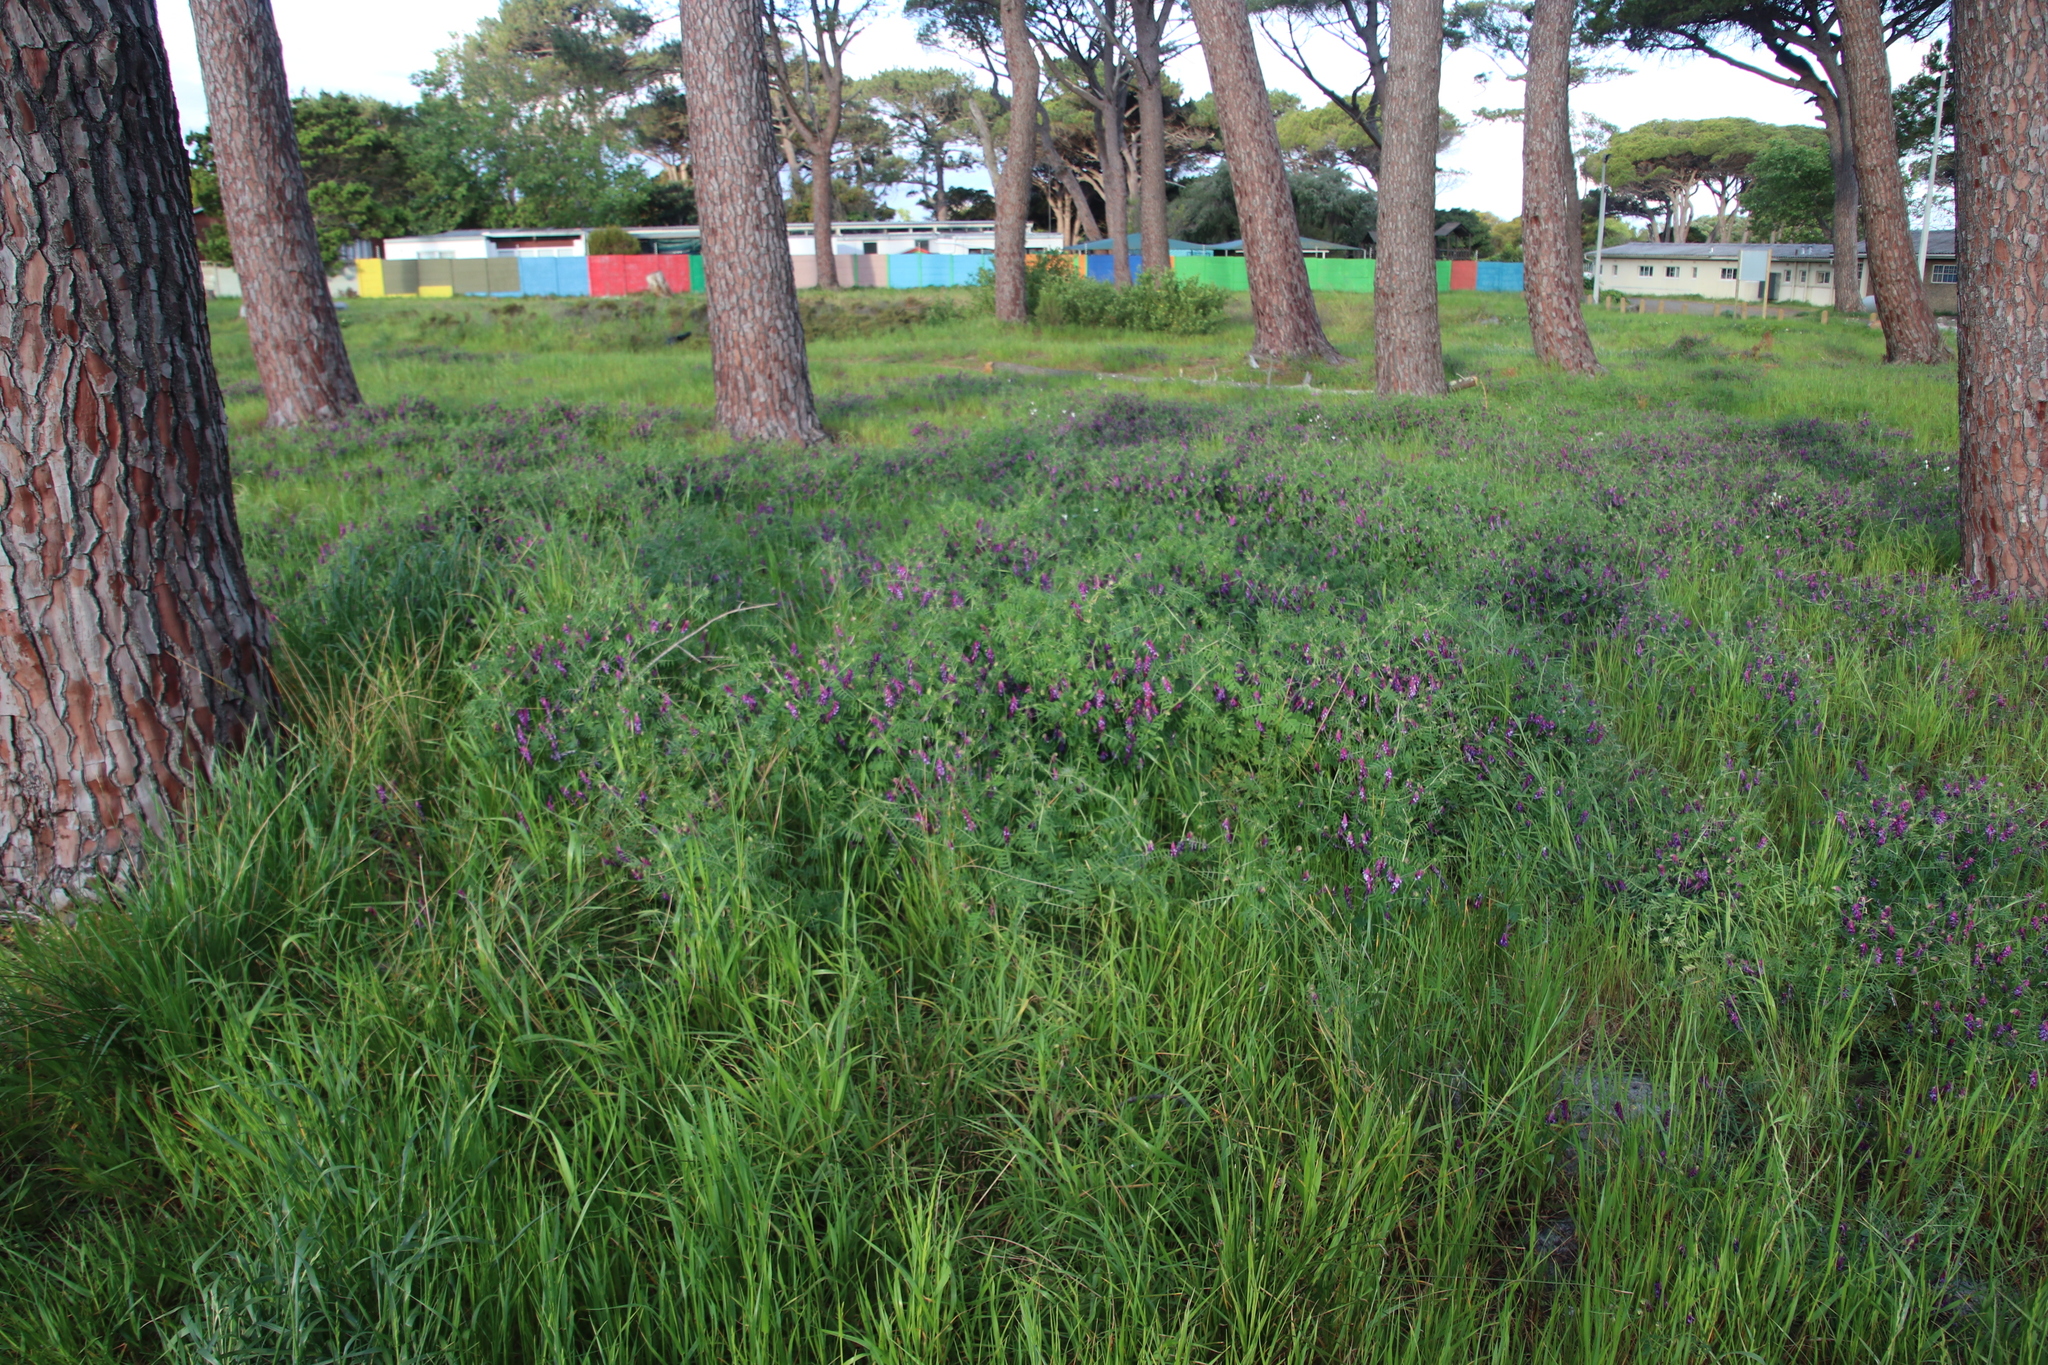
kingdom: Plantae
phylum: Tracheophyta
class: Magnoliopsida
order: Fabales
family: Fabaceae
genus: Vicia
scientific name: Vicia eriocarpa
